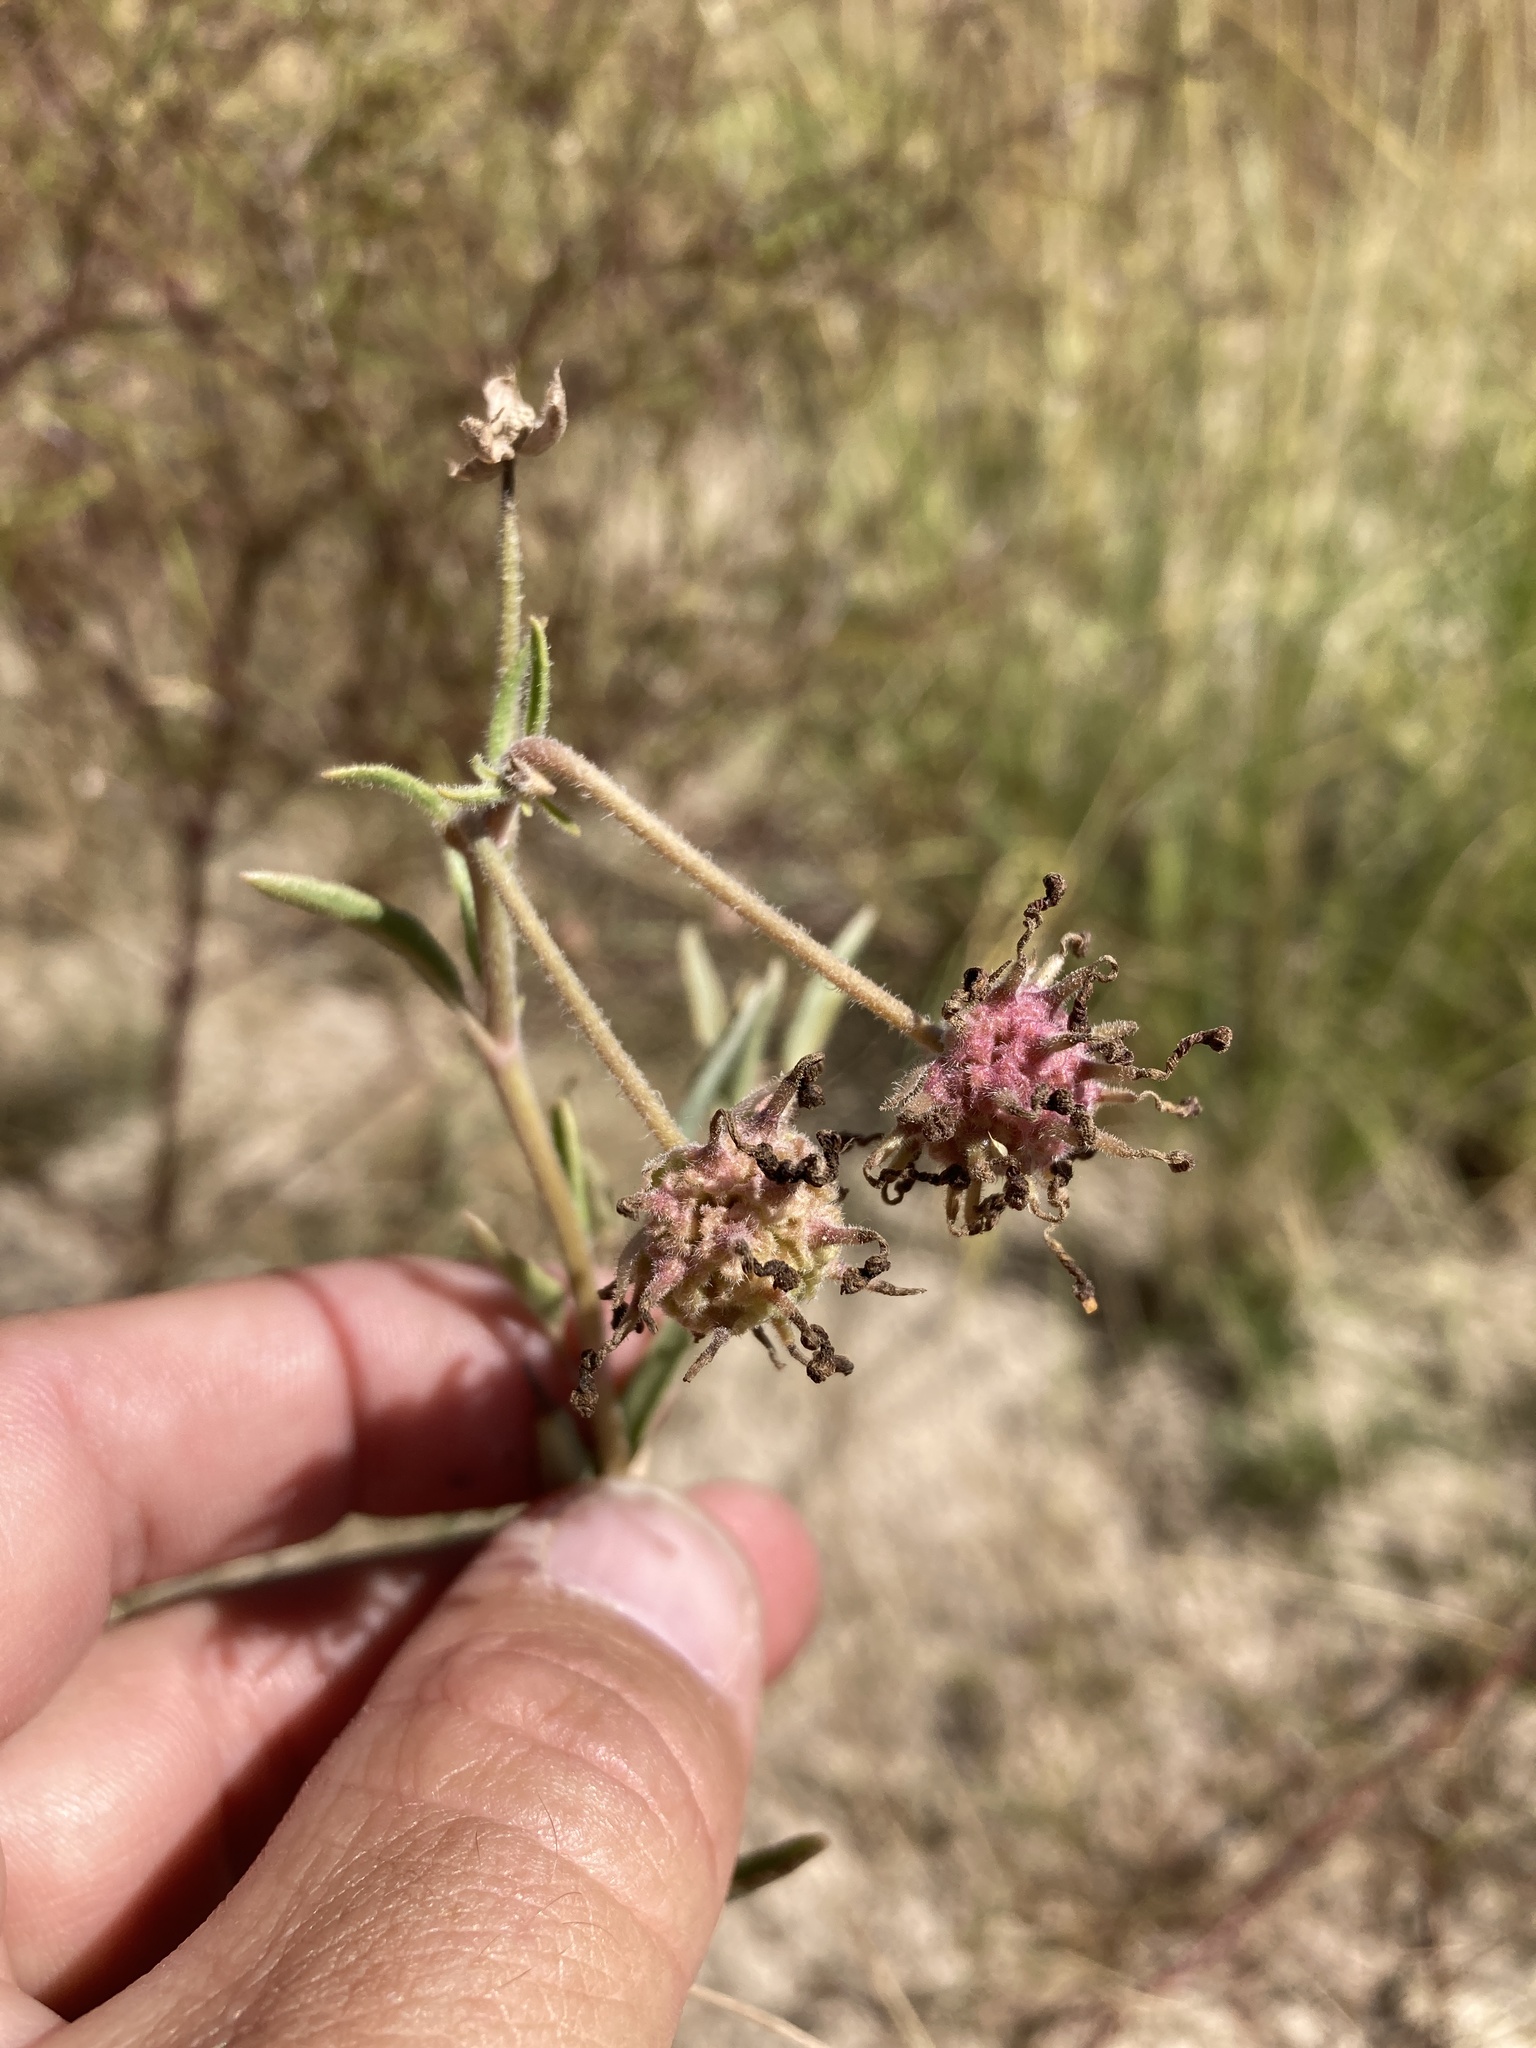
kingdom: Plantae
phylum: Tracheophyta
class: Magnoliopsida
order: Caryophyllales
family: Nyctaginaceae
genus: Abronia
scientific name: Abronia carletonii
